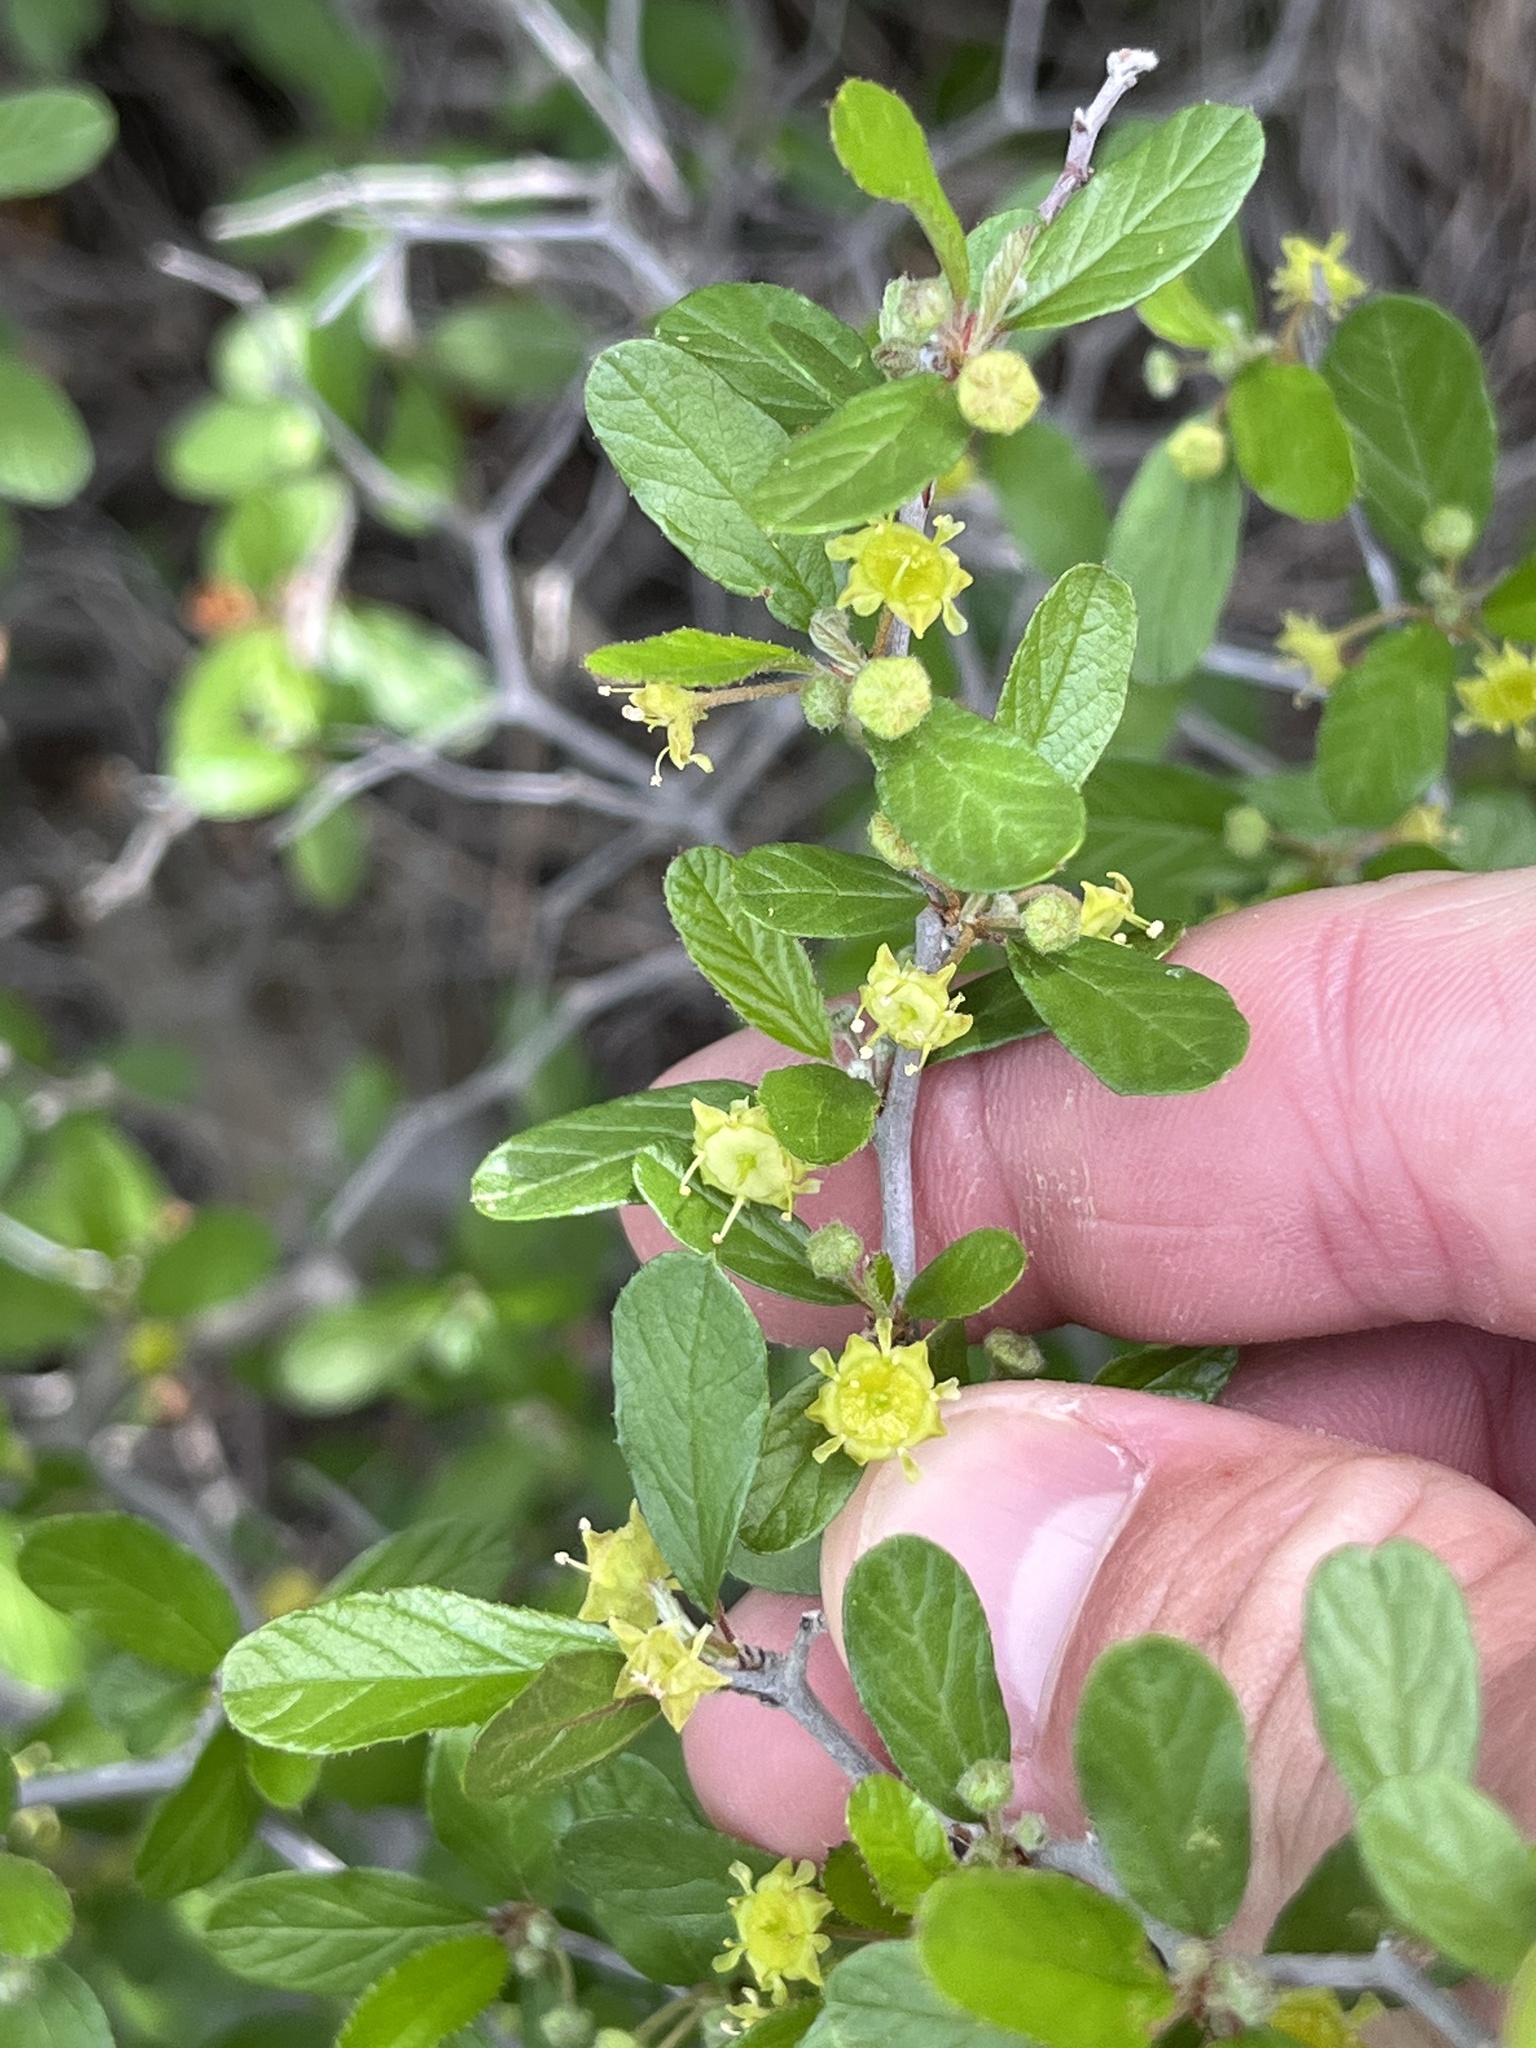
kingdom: Plantae
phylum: Tracheophyta
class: Magnoliopsida
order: Rosales
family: Rhamnaceae
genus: Colubrina
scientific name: Colubrina texensis
